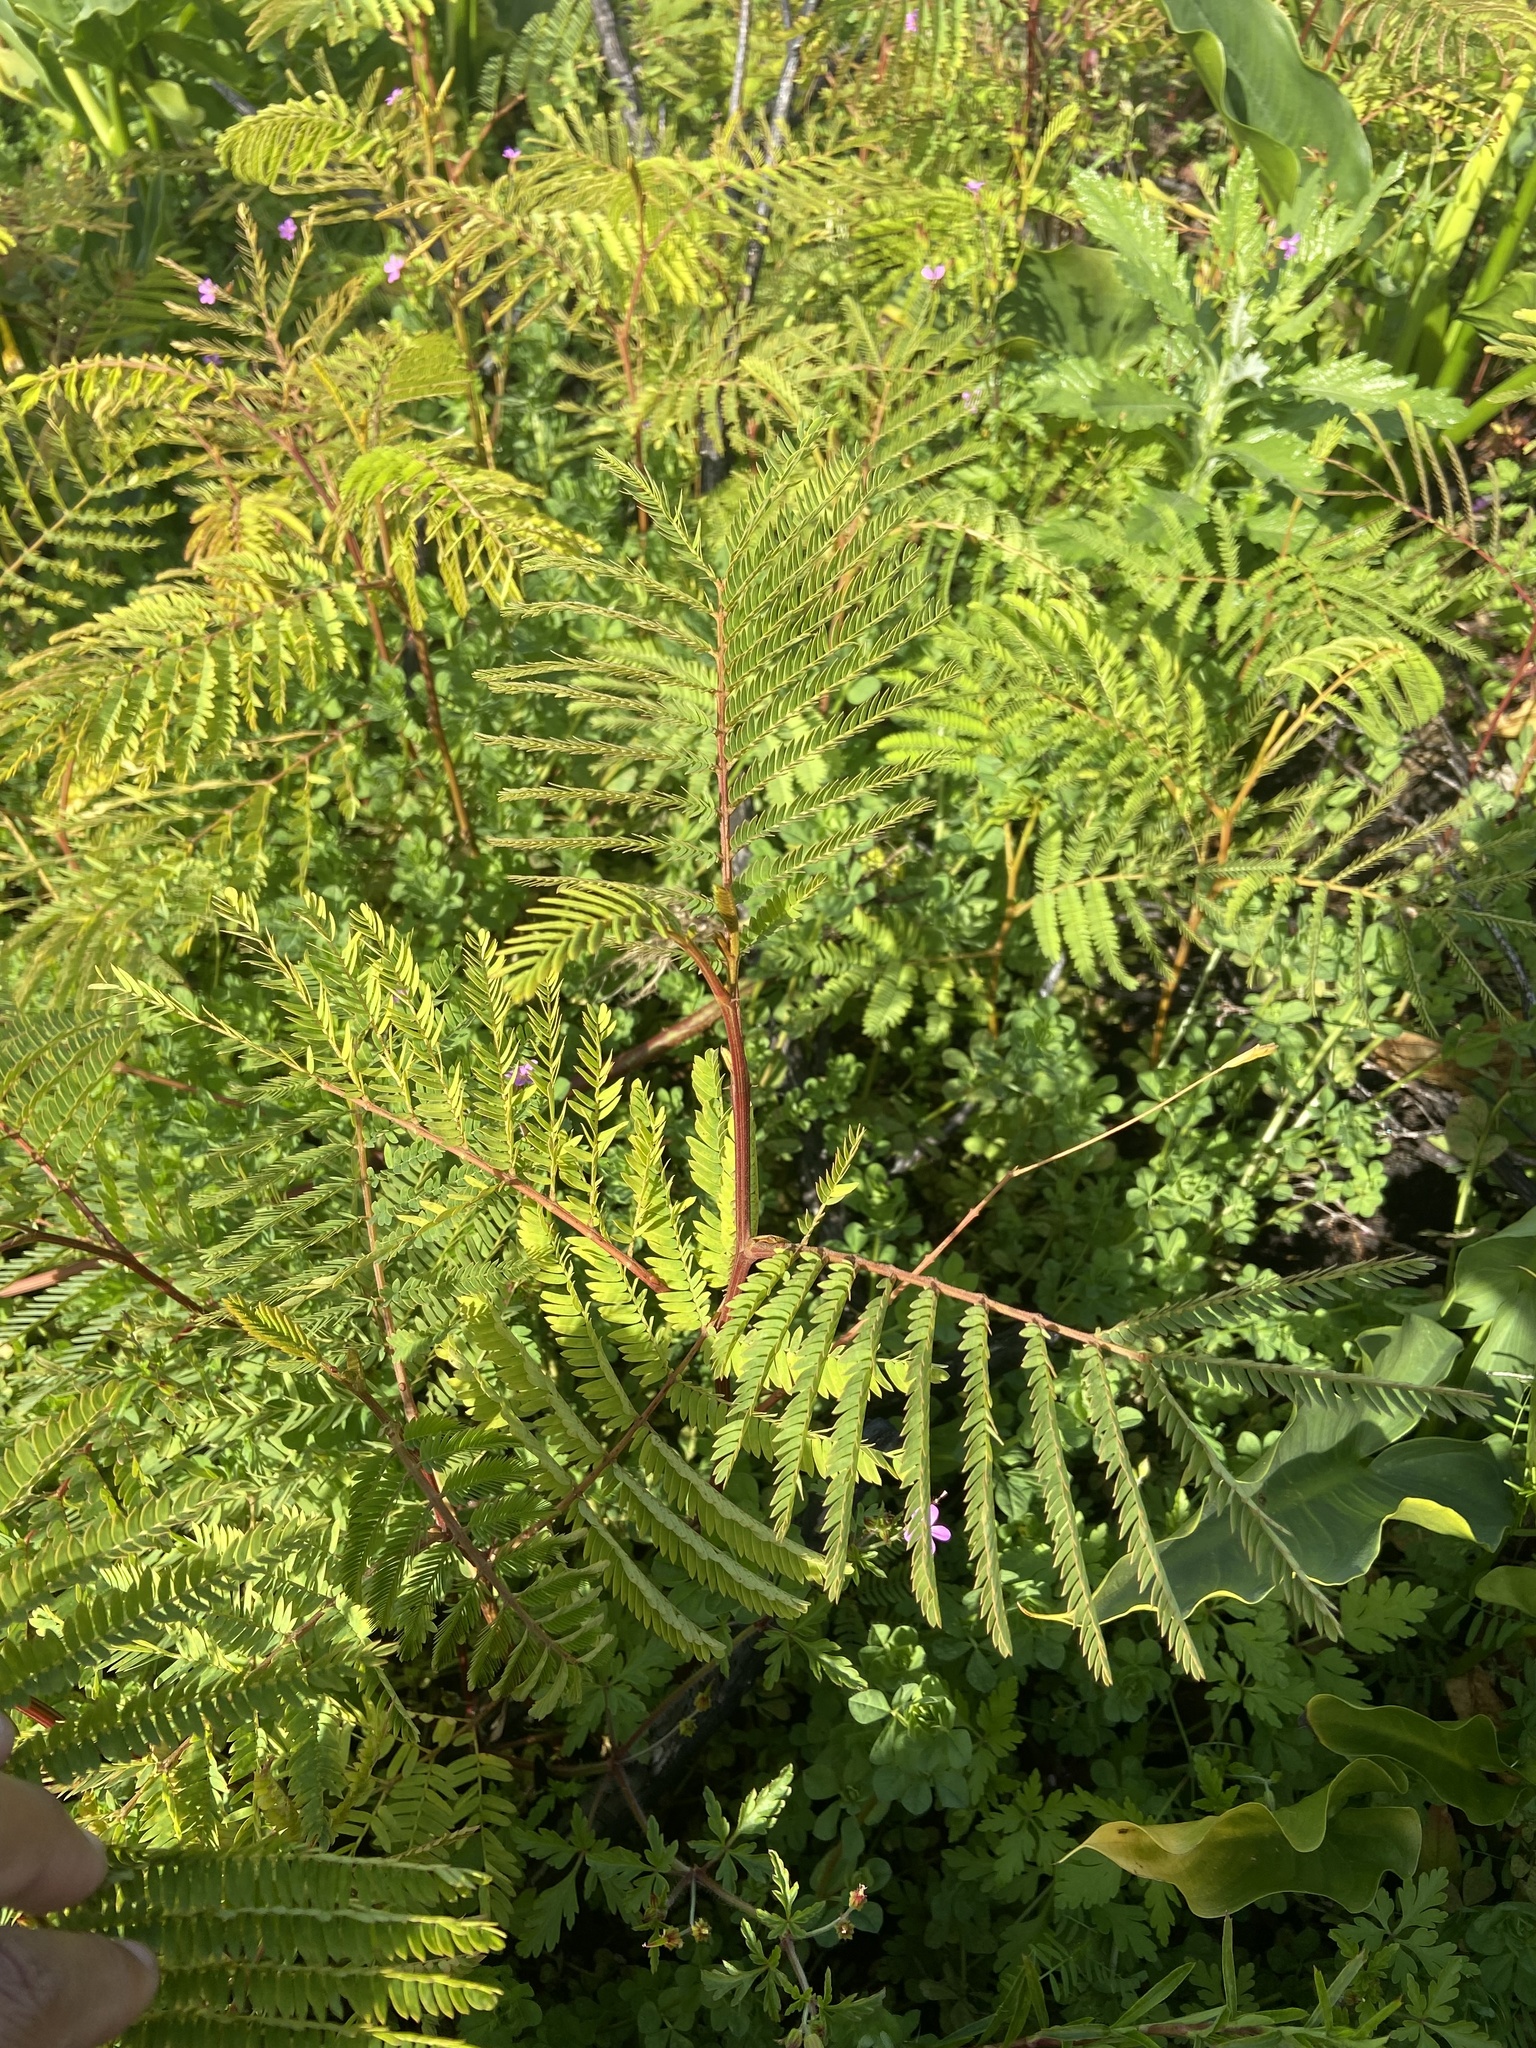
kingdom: Plantae
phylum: Tracheophyta
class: Magnoliopsida
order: Fabales
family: Fabaceae
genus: Paraserianthes
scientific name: Paraserianthes lophantha
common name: Plume albizia
